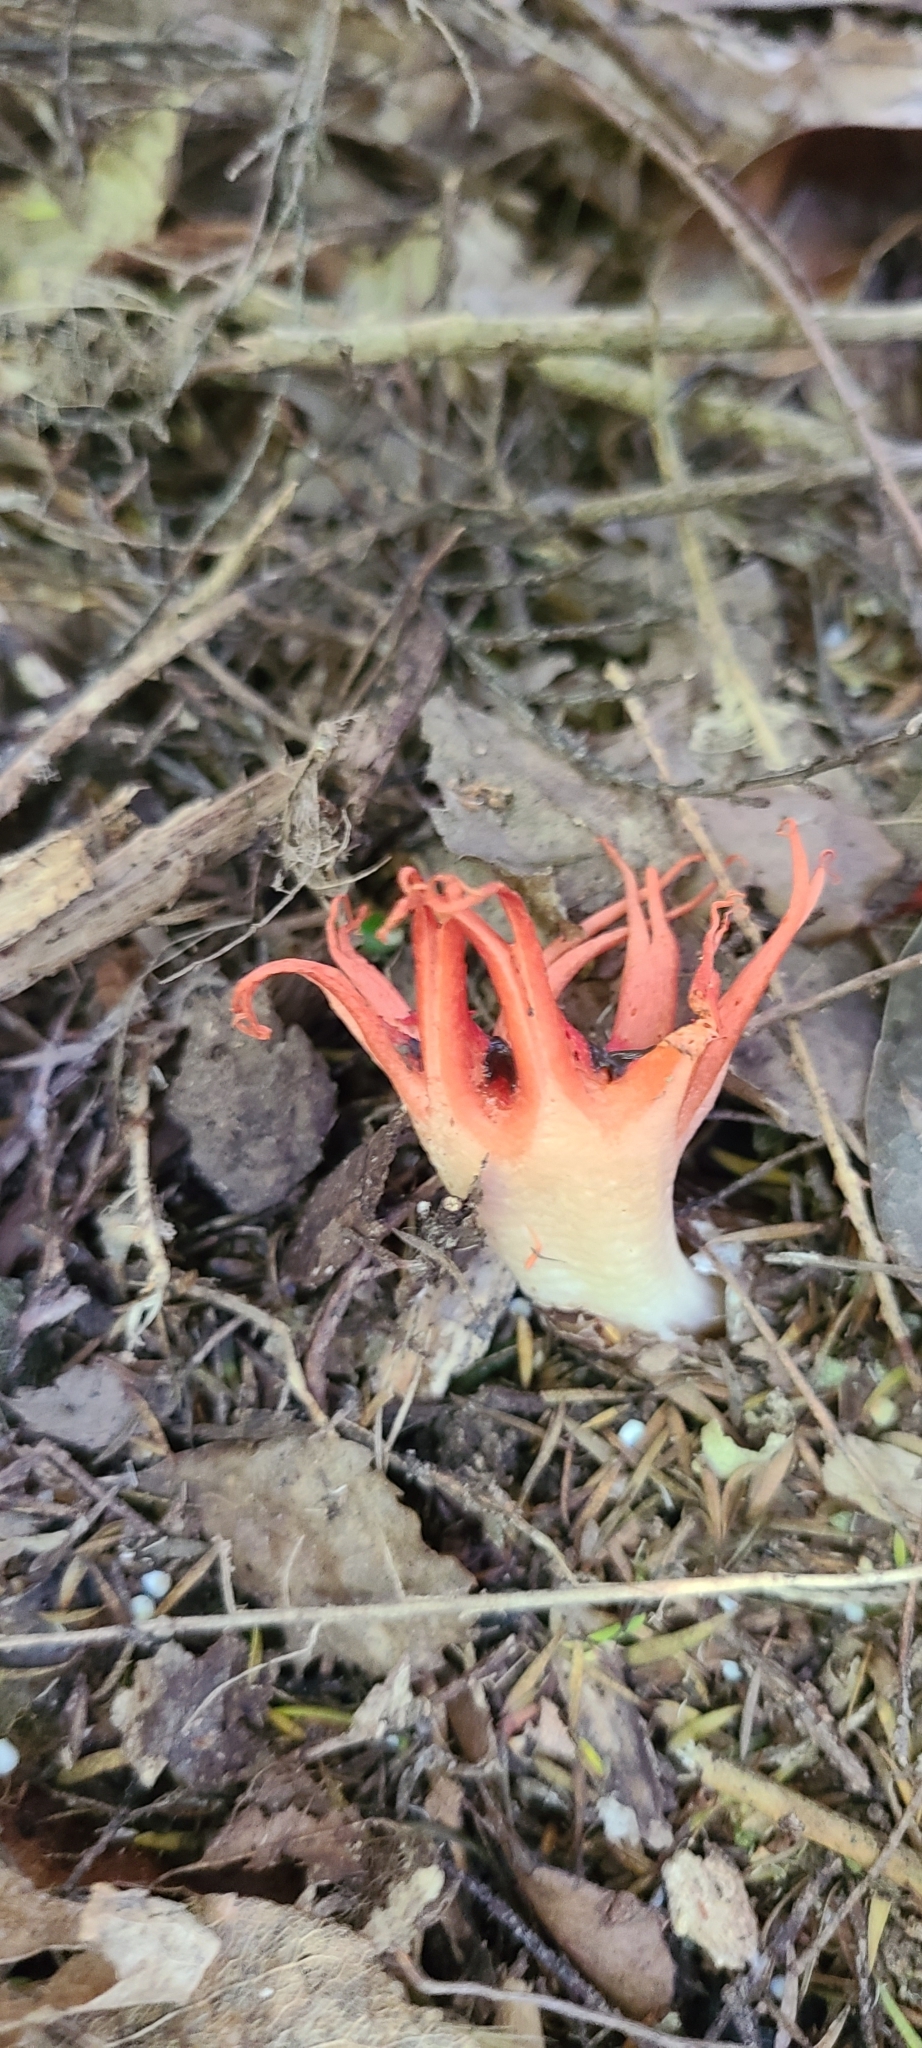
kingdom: Fungi
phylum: Basidiomycota
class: Agaricomycetes
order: Phallales
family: Phallaceae
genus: Aseroe
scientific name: Aseroe rubra
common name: Starfish fungus
